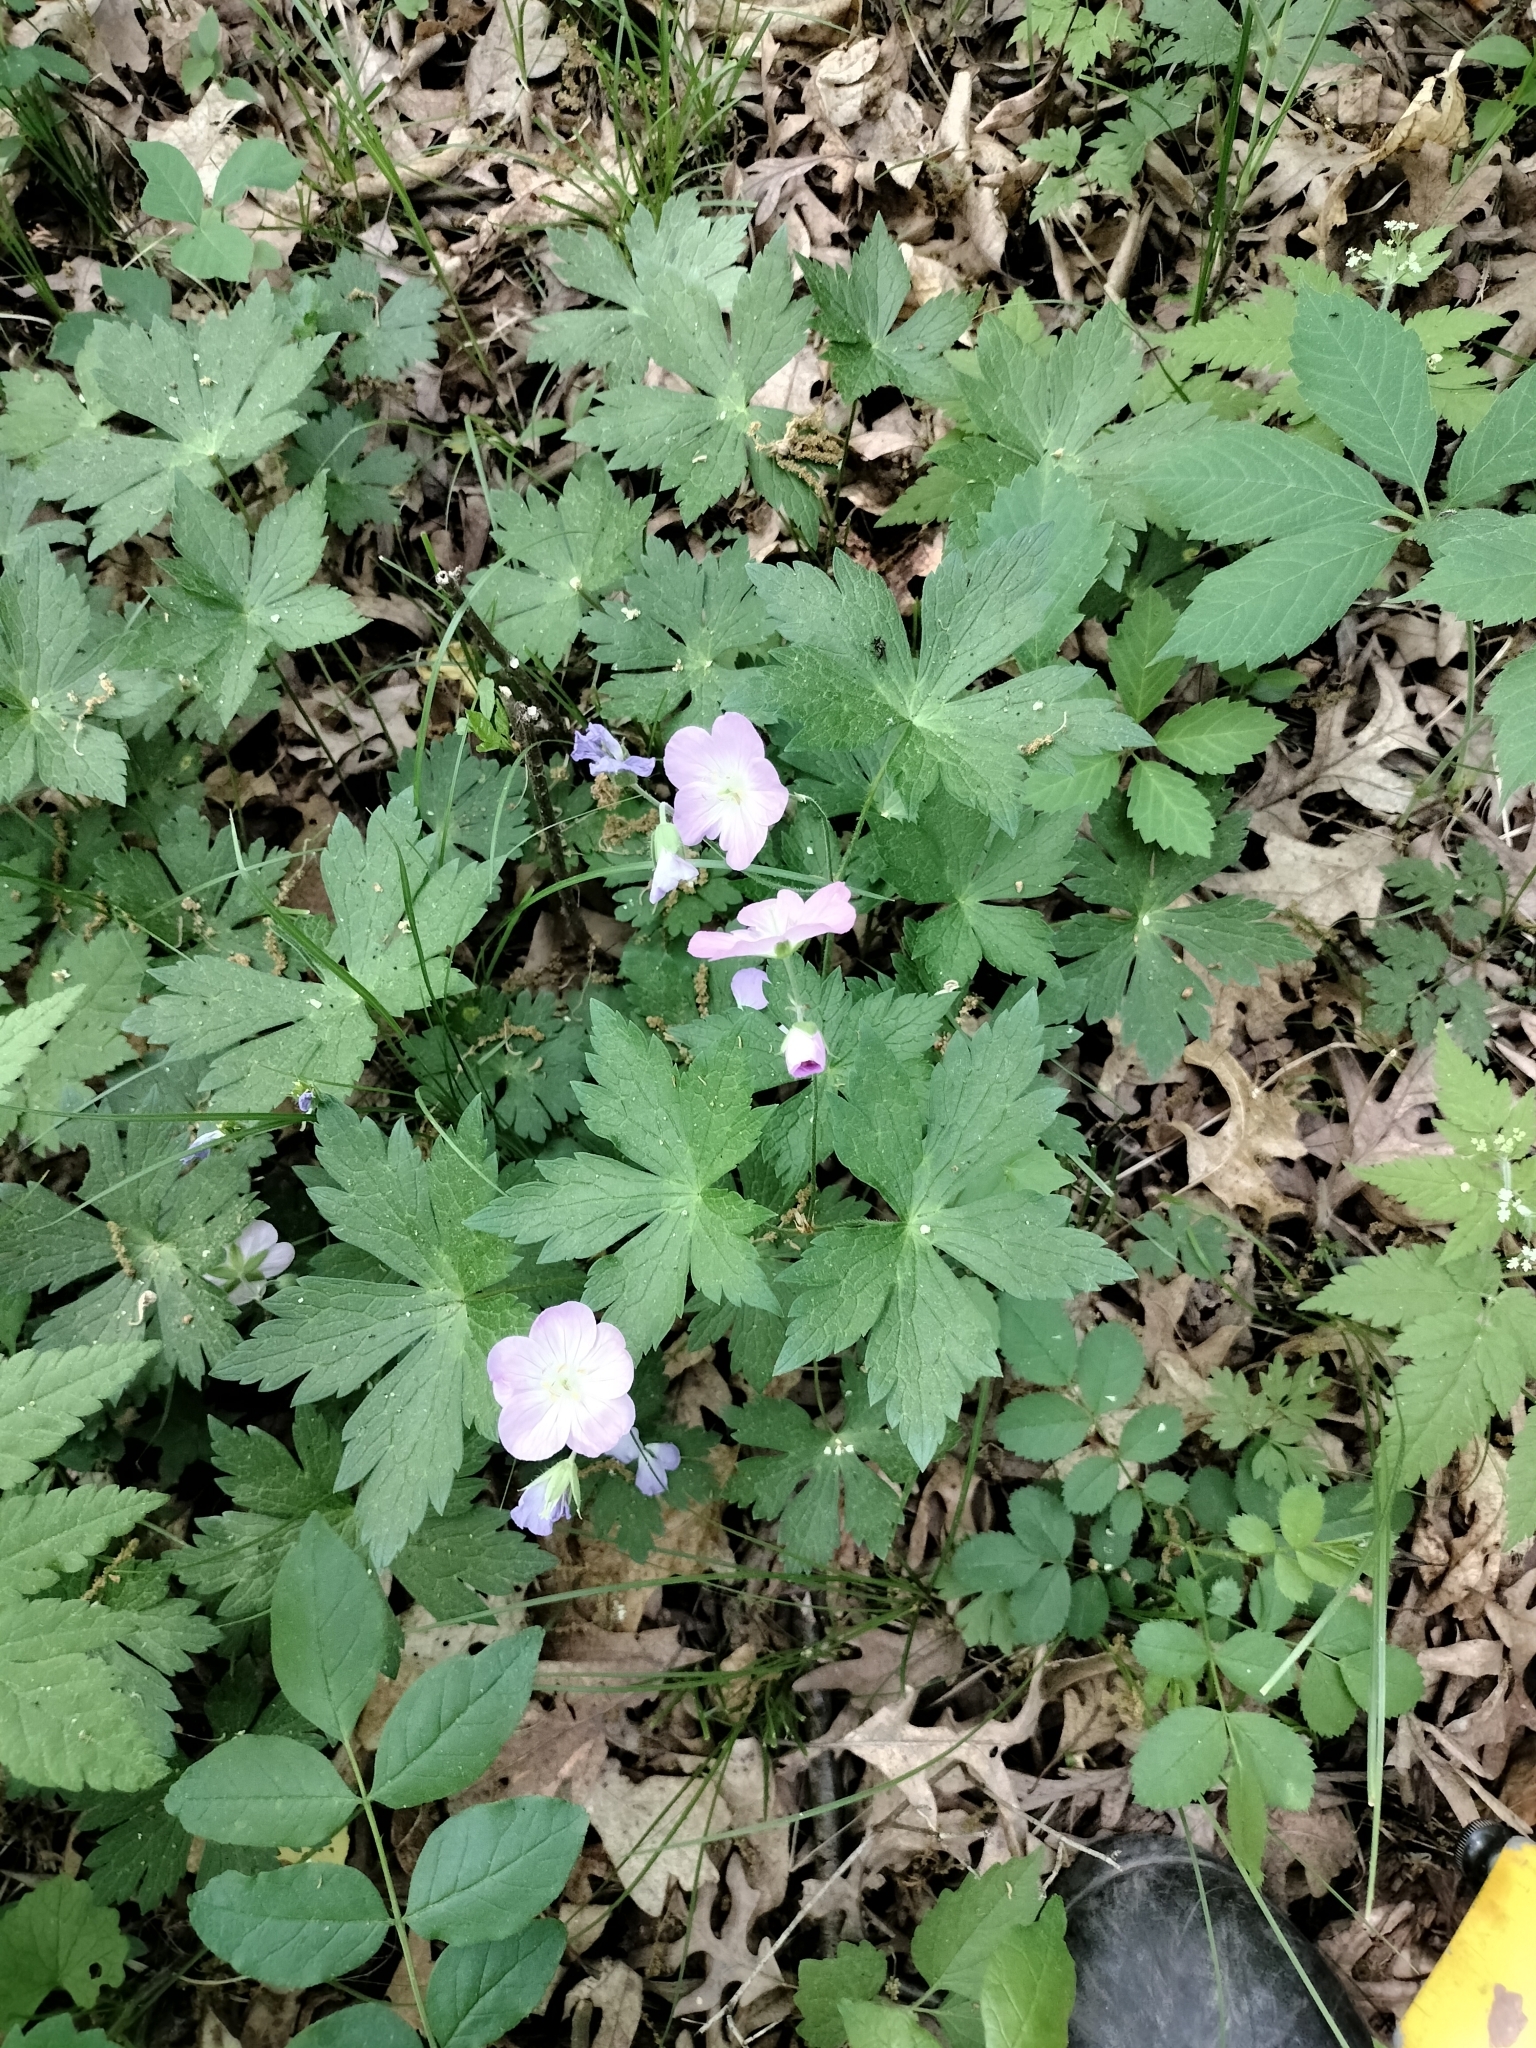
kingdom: Plantae
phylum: Tracheophyta
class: Magnoliopsida
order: Geraniales
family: Geraniaceae
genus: Geranium
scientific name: Geranium maculatum
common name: Spotted geranium
